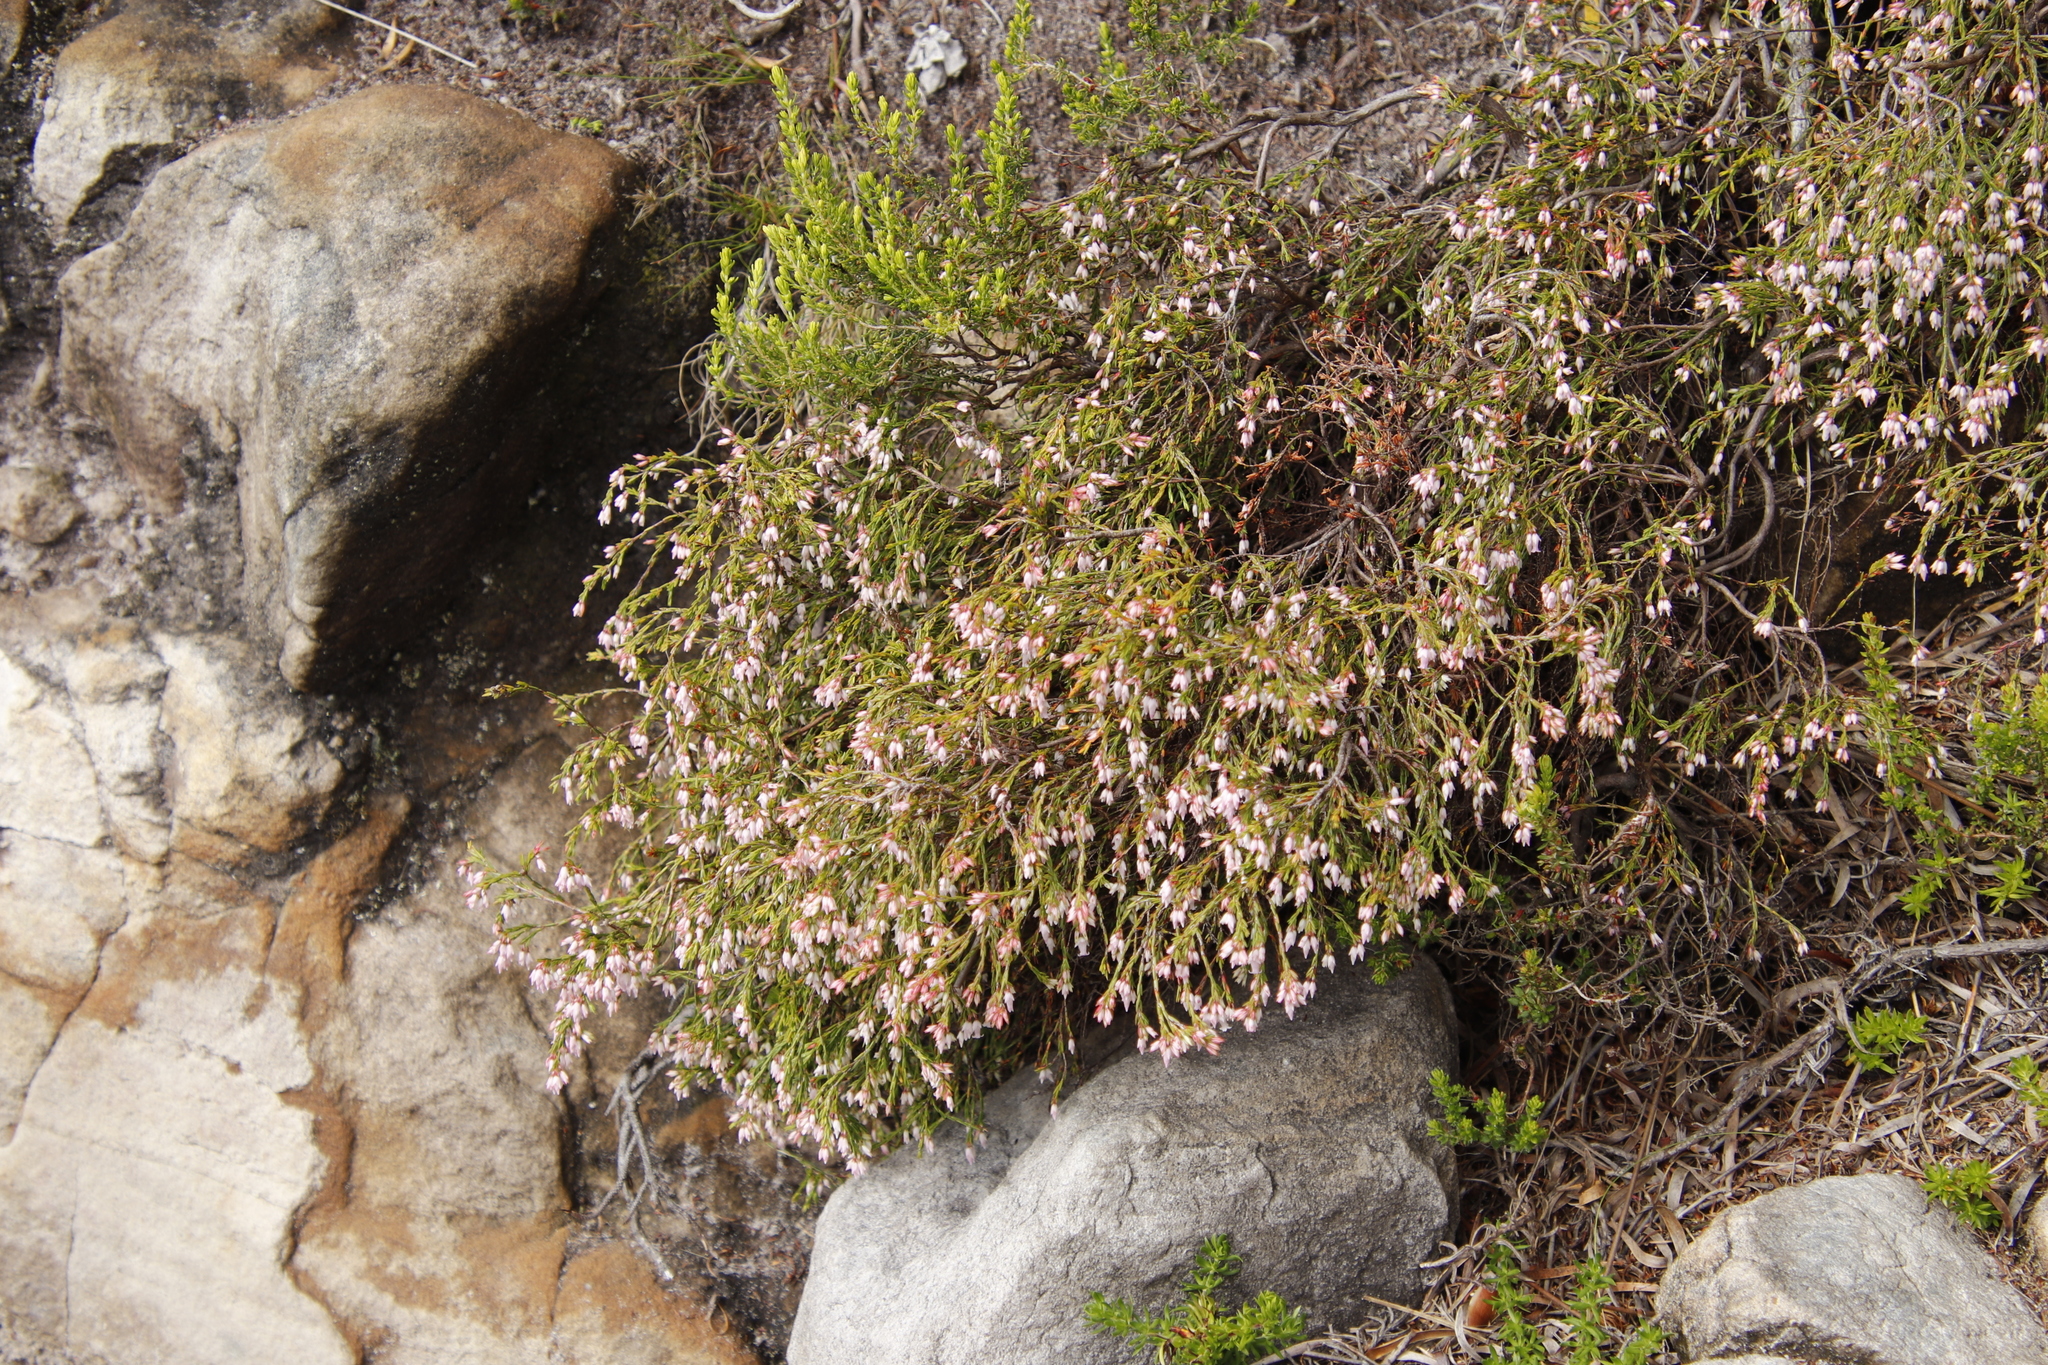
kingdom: Plantae
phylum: Tracheophyta
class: Magnoliopsida
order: Ericales
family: Ericaceae
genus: Erica
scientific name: Erica equisetifolia
